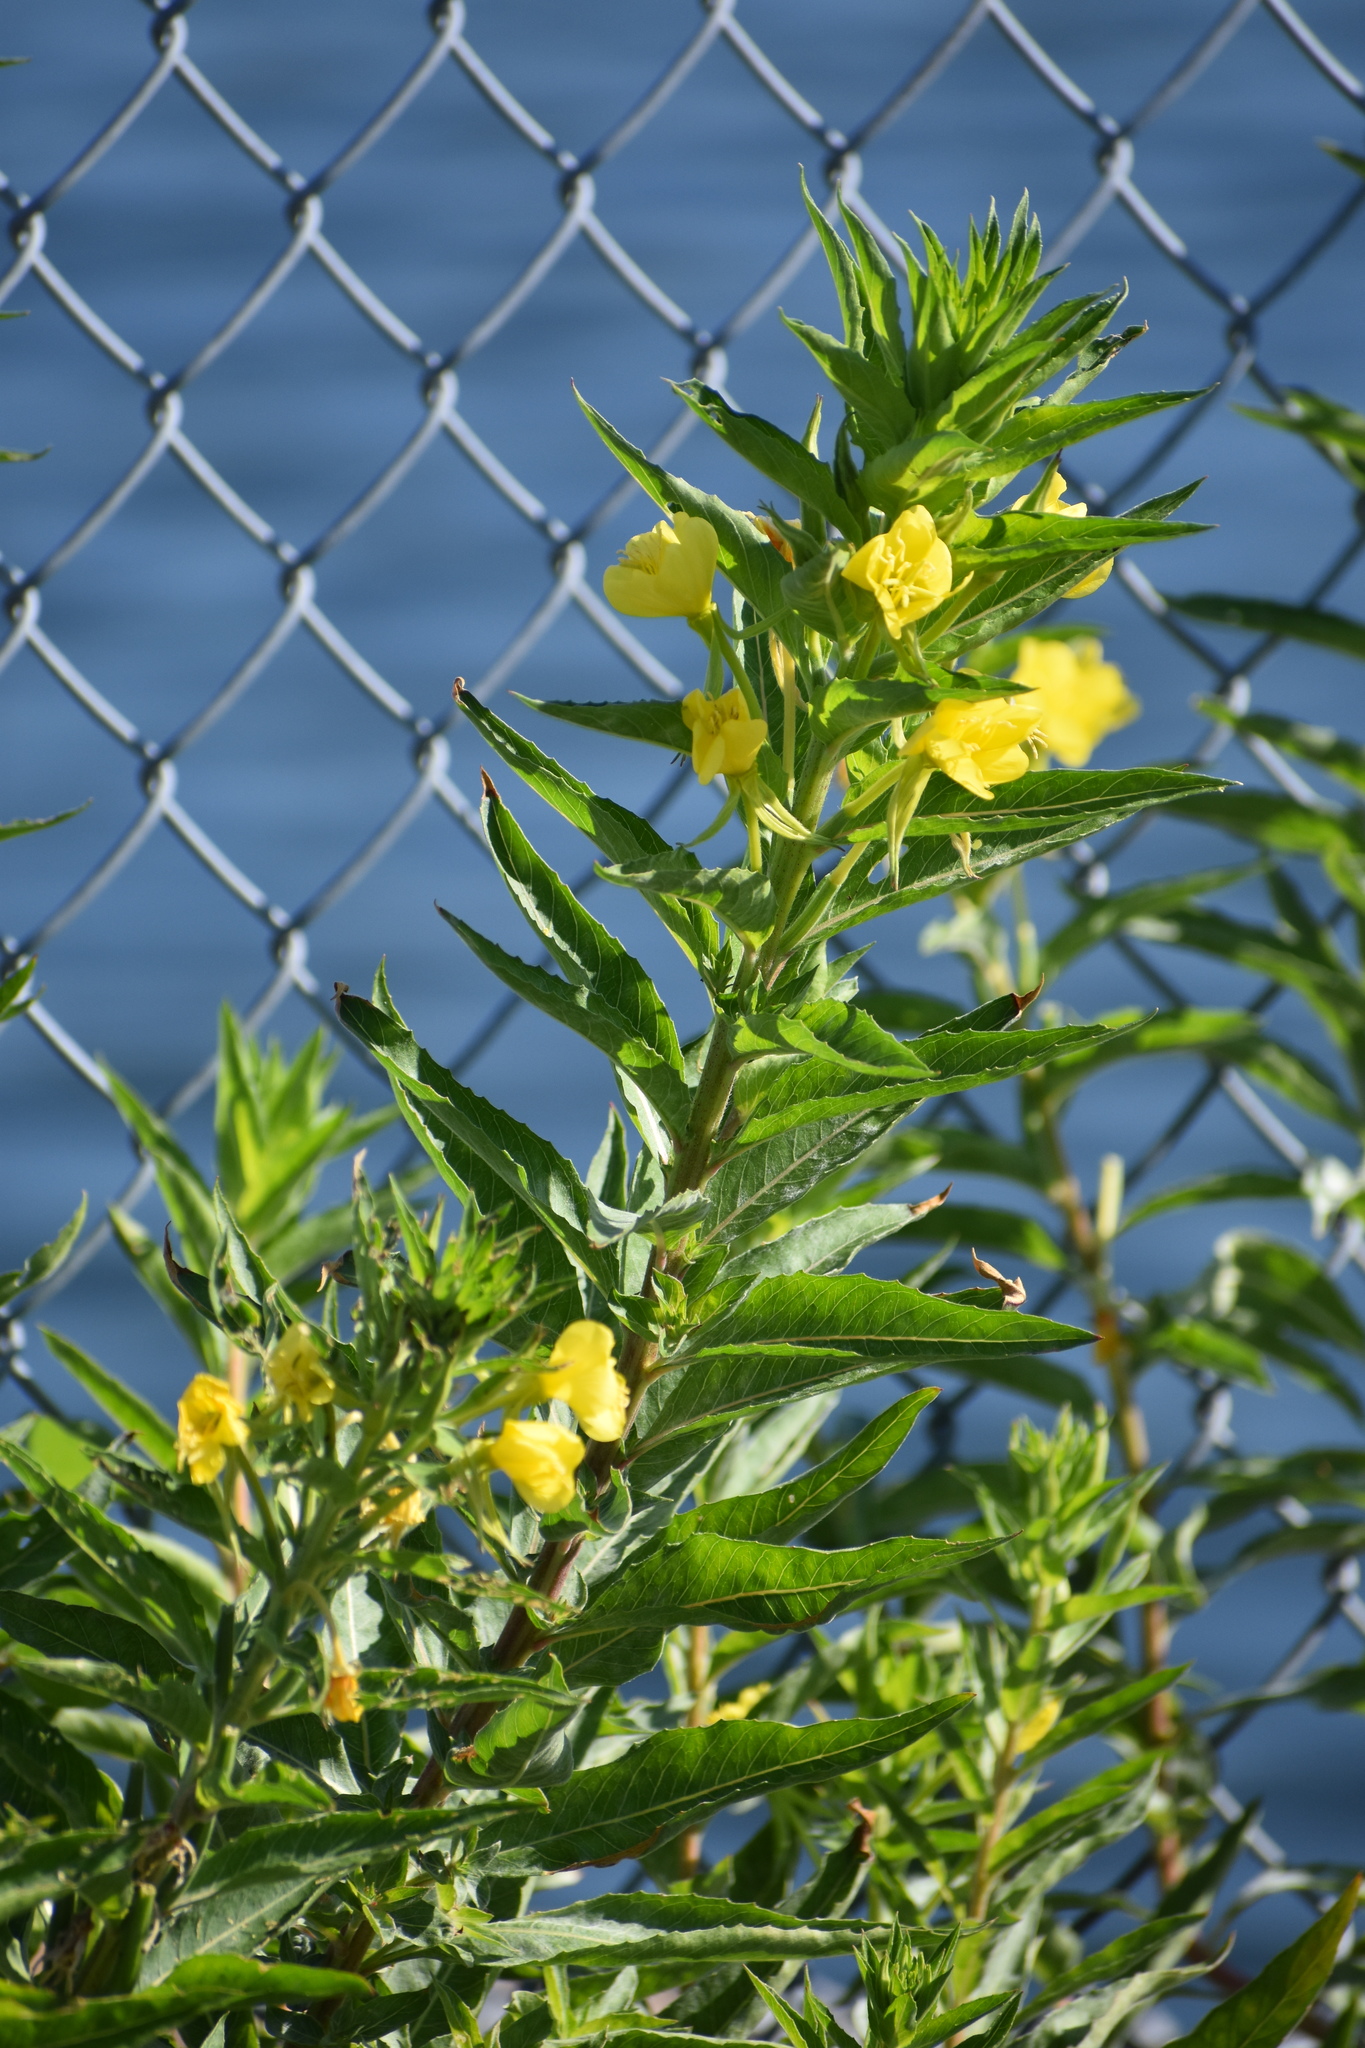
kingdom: Plantae
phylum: Tracheophyta
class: Magnoliopsida
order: Myrtales
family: Onagraceae
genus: Oenothera
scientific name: Oenothera parviflora
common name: Least evening-primrose
